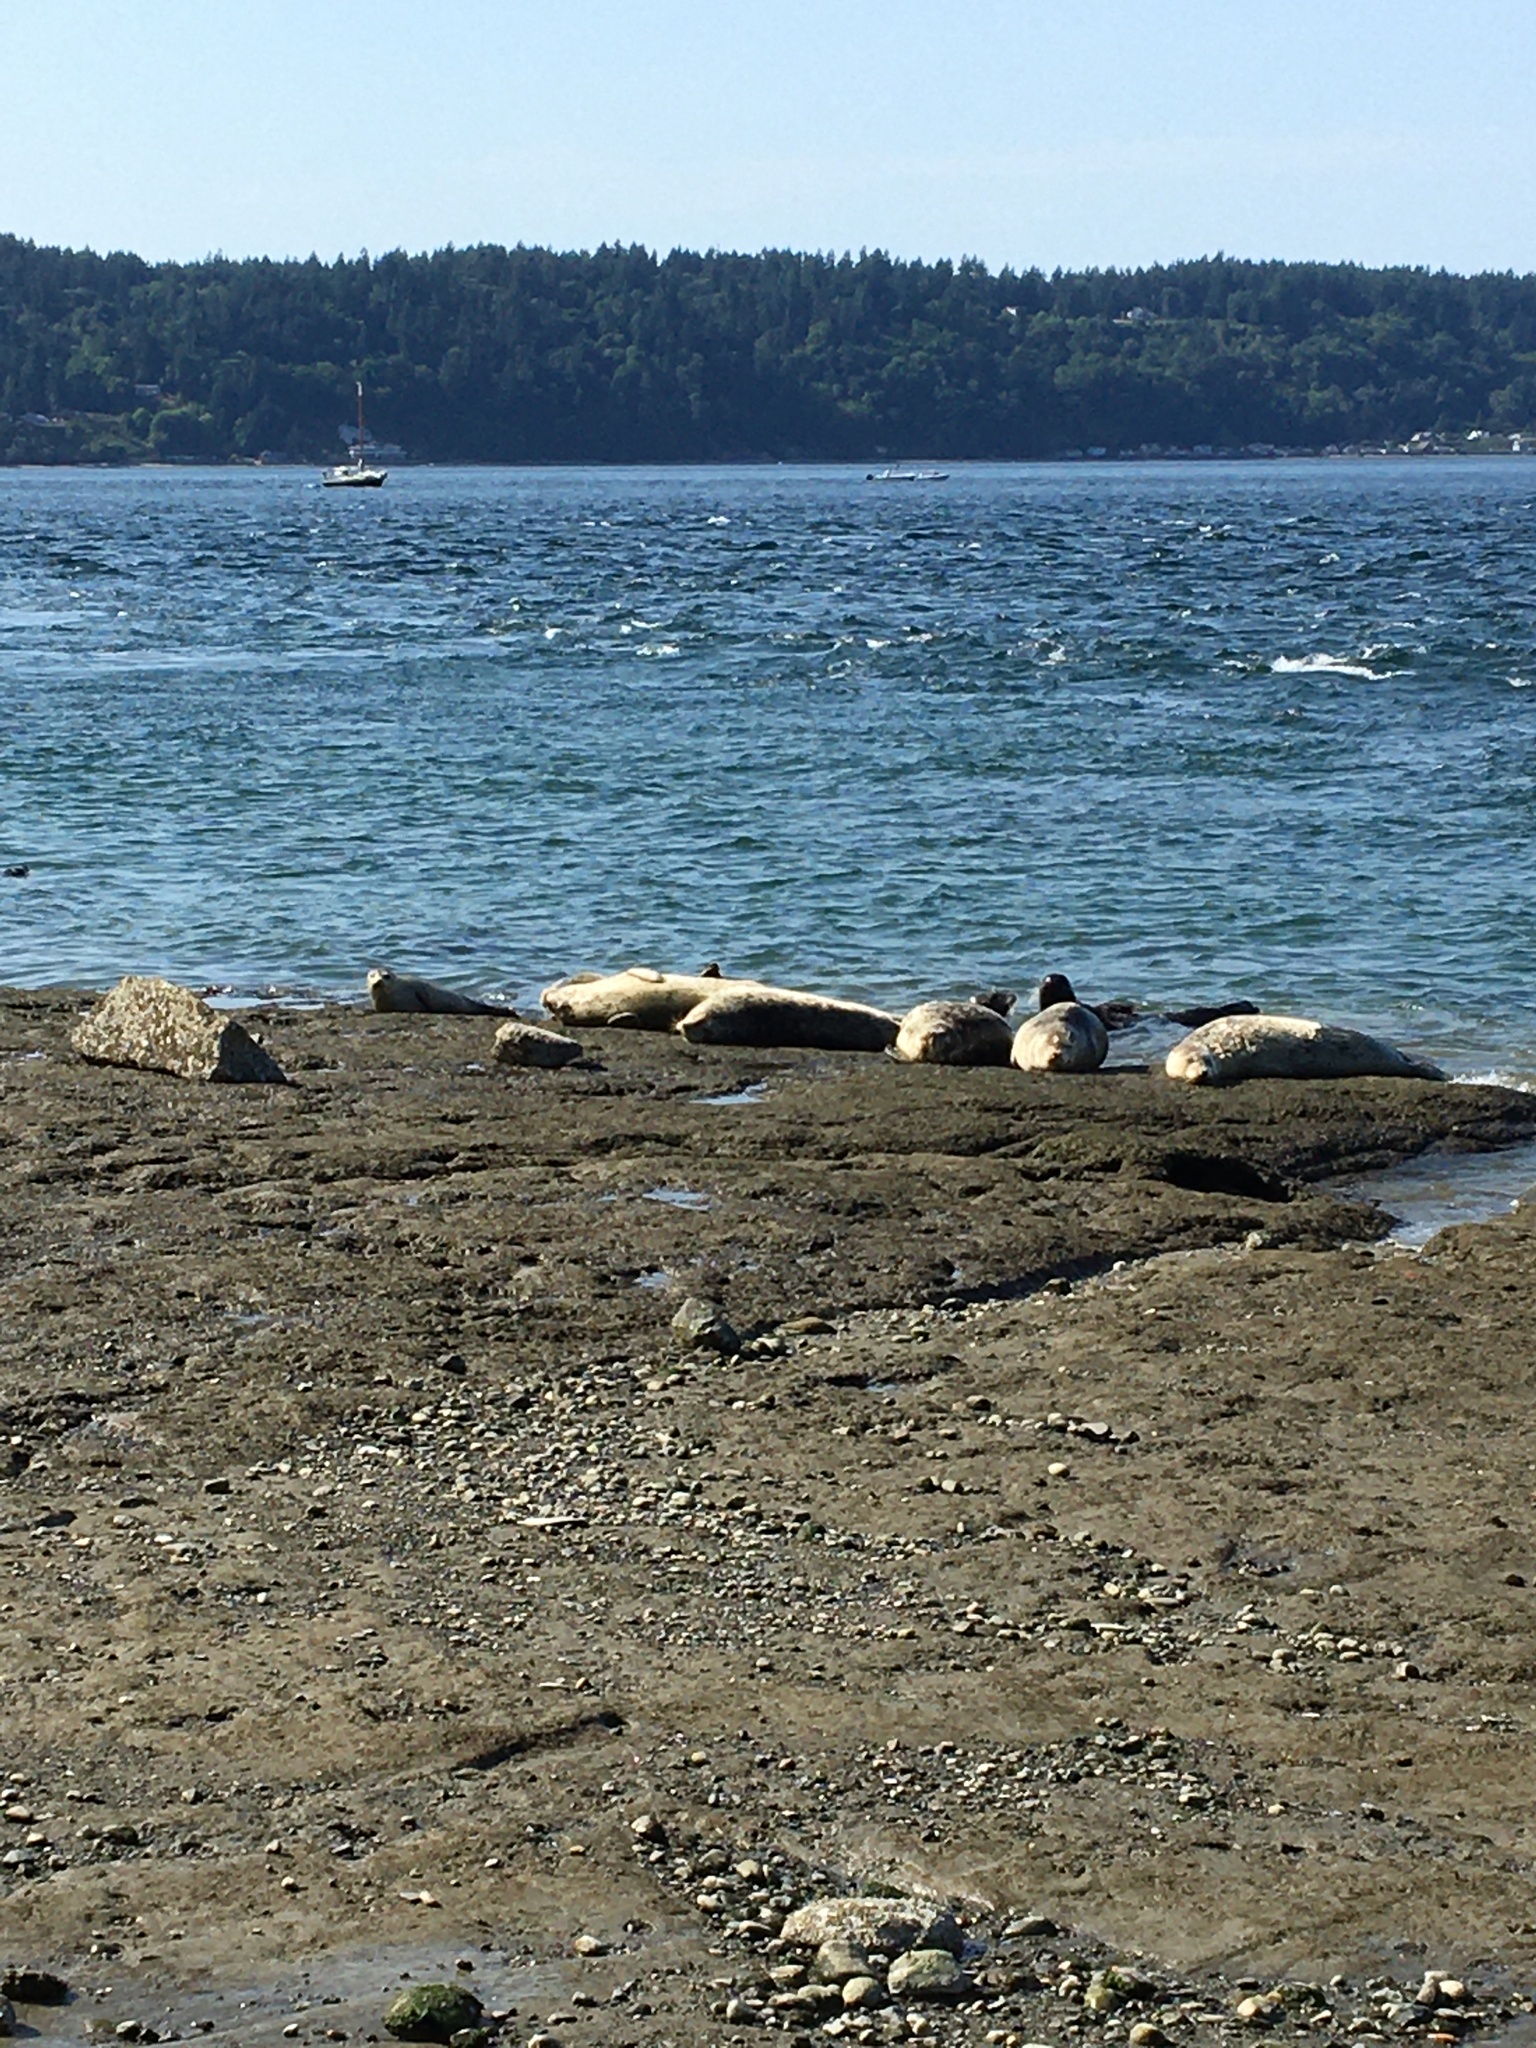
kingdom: Animalia
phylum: Chordata
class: Mammalia
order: Carnivora
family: Phocidae
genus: Phoca
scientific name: Phoca vitulina
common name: Harbor seal
